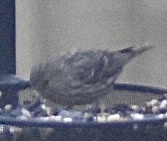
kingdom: Animalia
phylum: Chordata
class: Aves
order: Passeriformes
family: Fringillidae
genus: Spinus
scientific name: Spinus pinus
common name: Pine siskin
